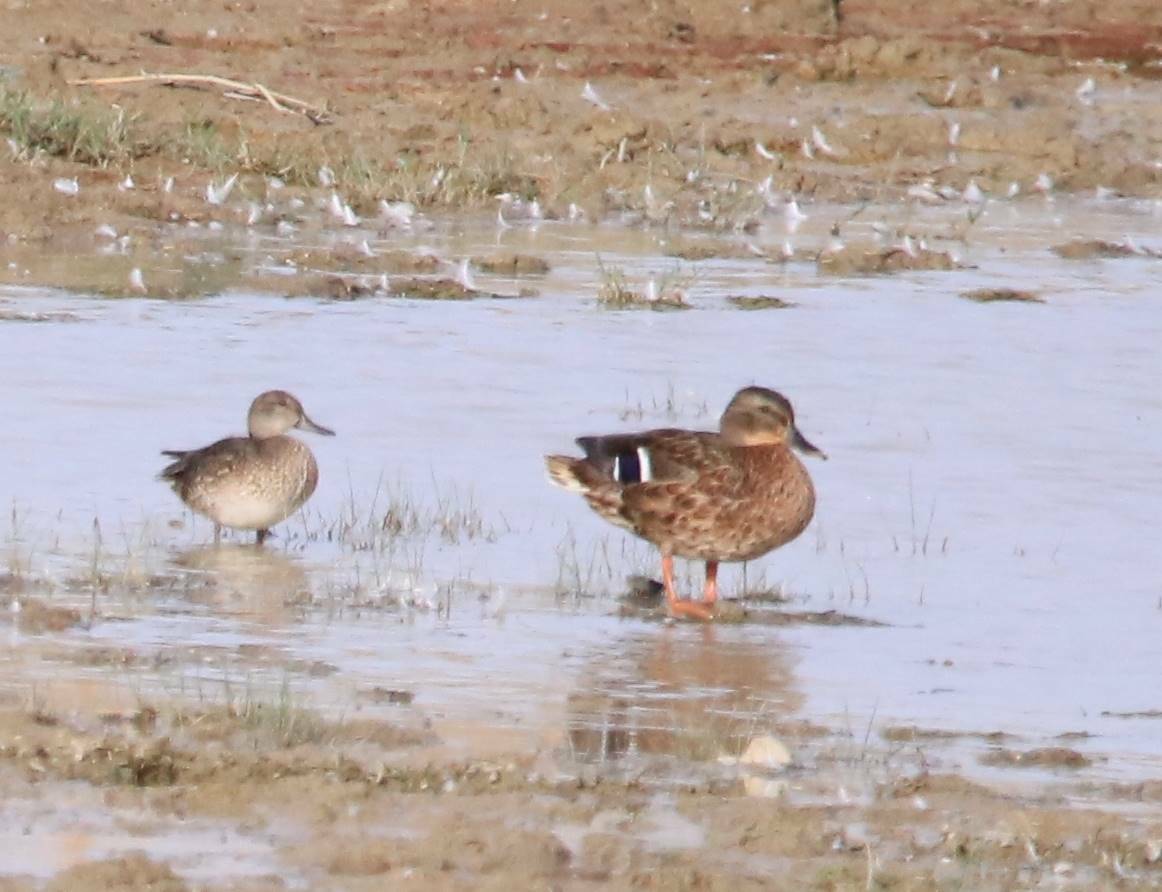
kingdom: Animalia
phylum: Chordata
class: Aves
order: Anseriformes
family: Anatidae
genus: Anas
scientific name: Anas crecca
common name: Eurasian teal
